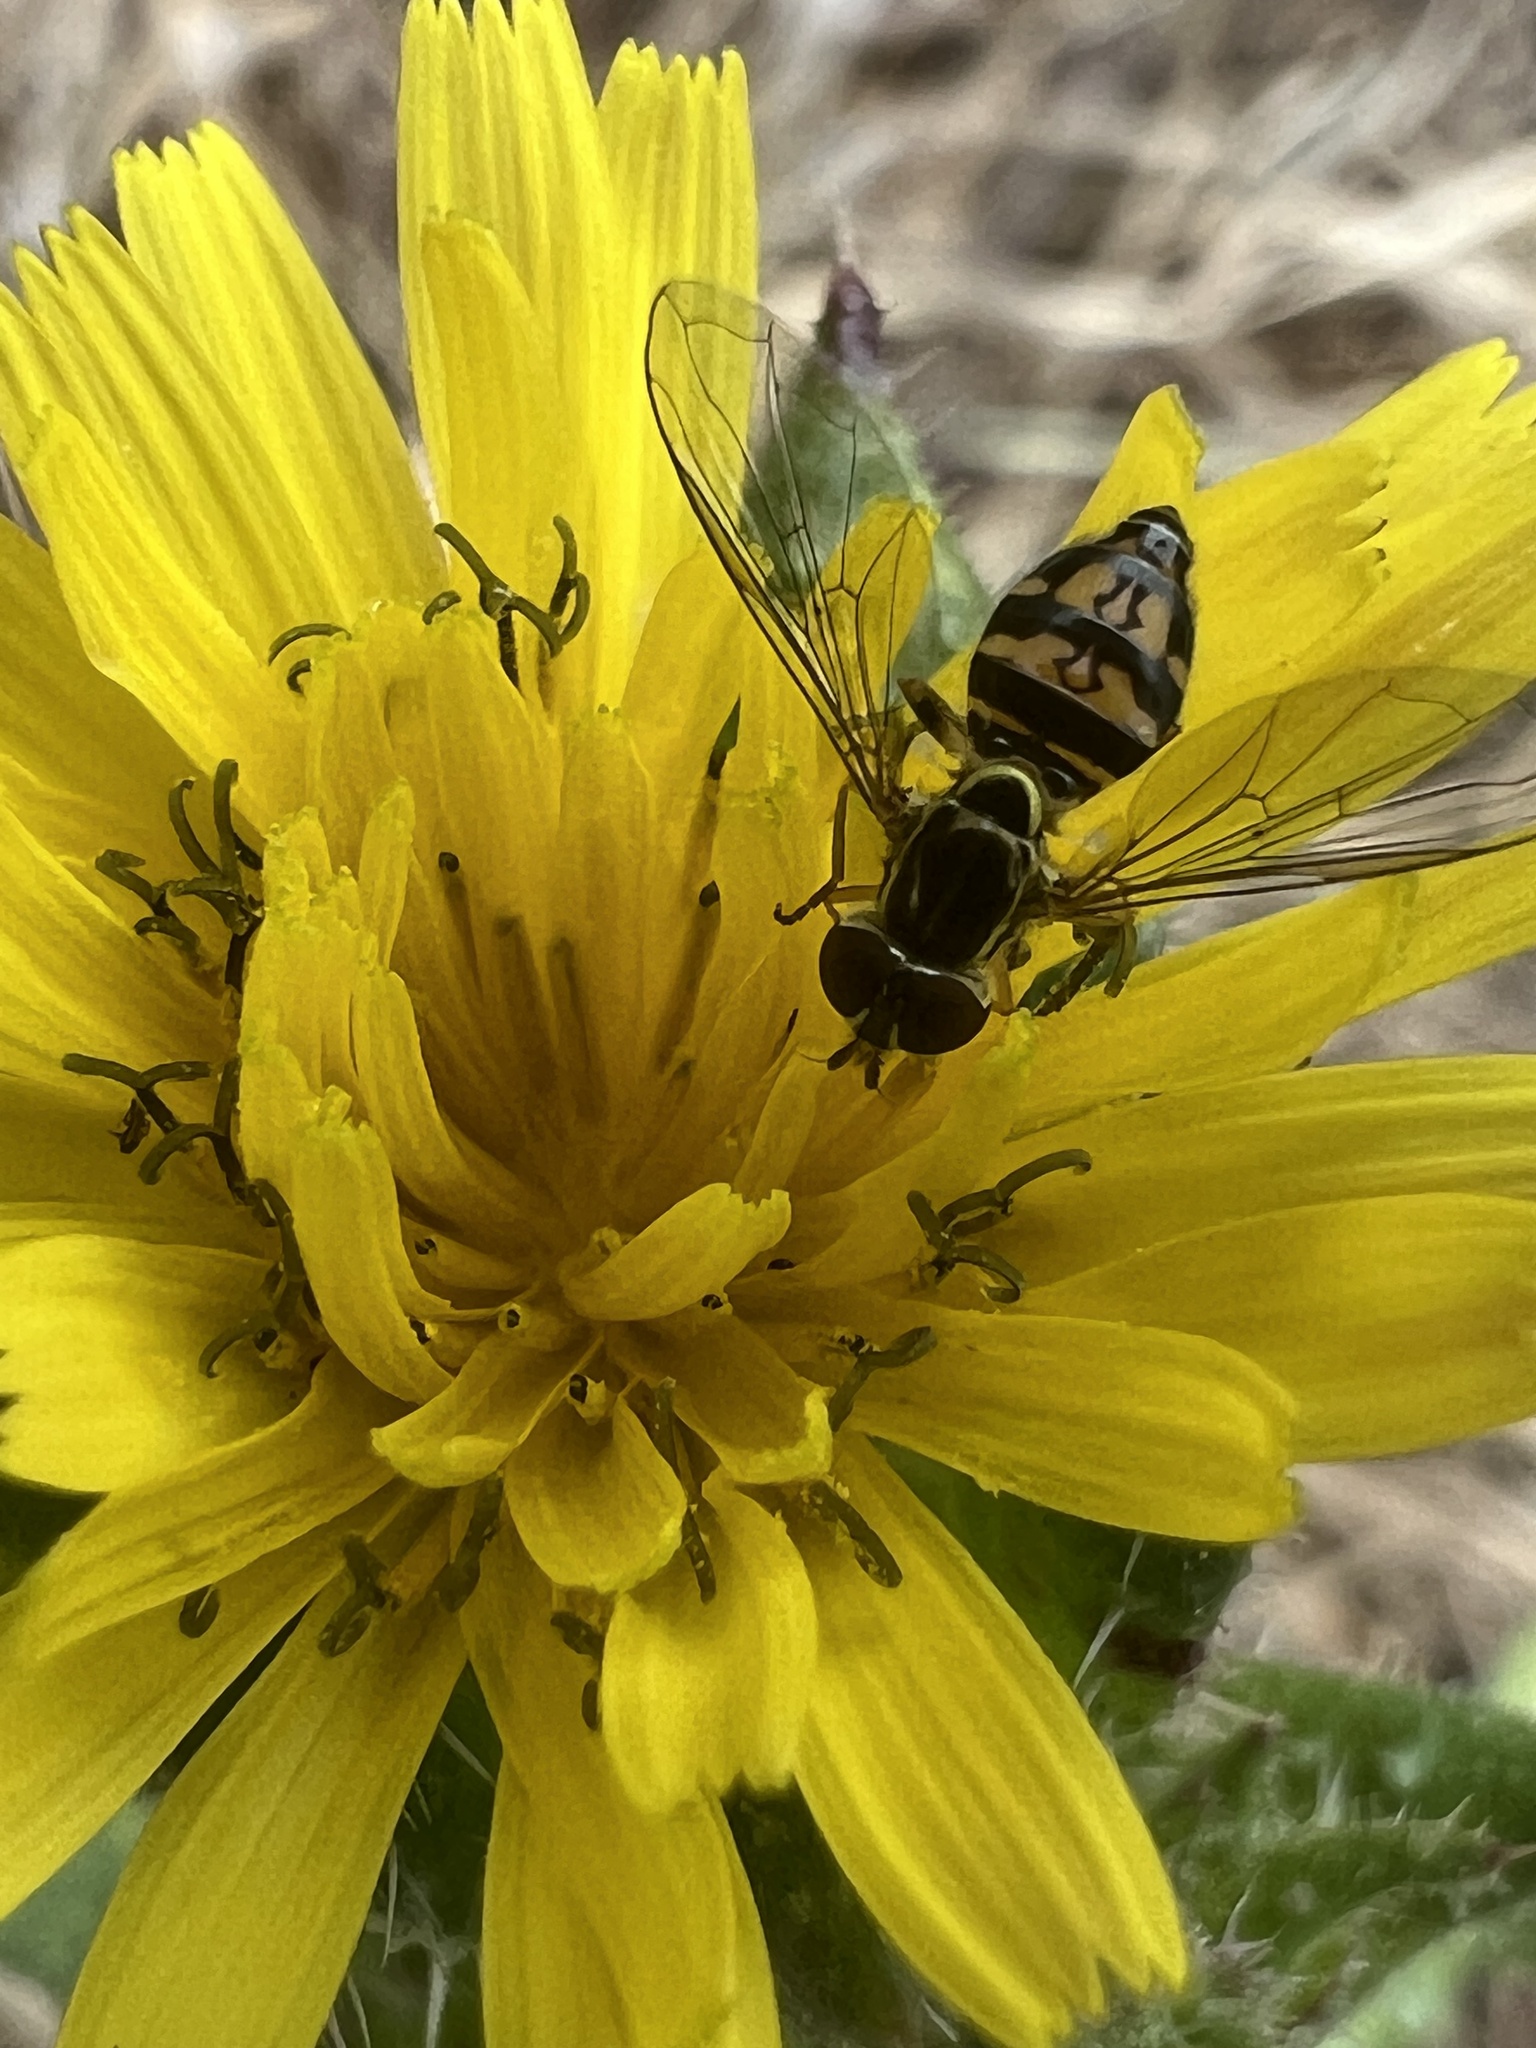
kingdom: Animalia
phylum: Arthropoda
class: Insecta
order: Diptera
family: Syrphidae
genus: Toxomerus
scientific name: Toxomerus occidentalis
